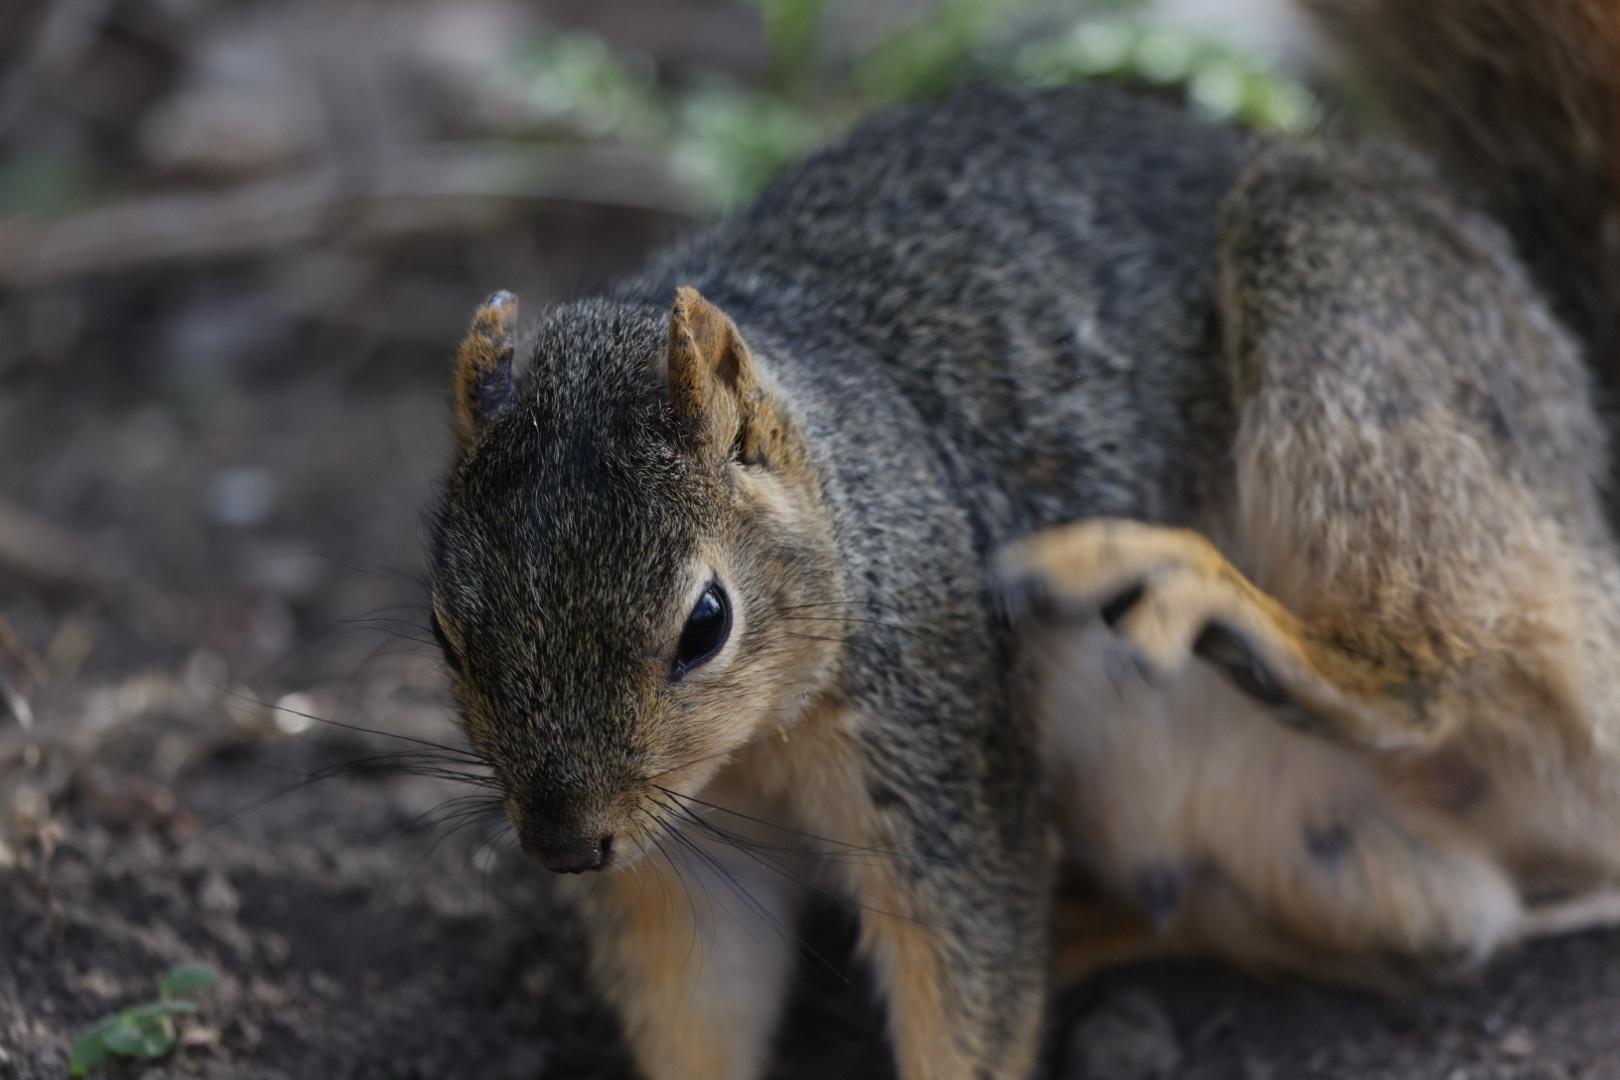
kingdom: Animalia
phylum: Chordata
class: Mammalia
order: Rodentia
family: Sciuridae
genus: Sciurus
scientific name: Sciurus niger
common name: Fox squirrel
